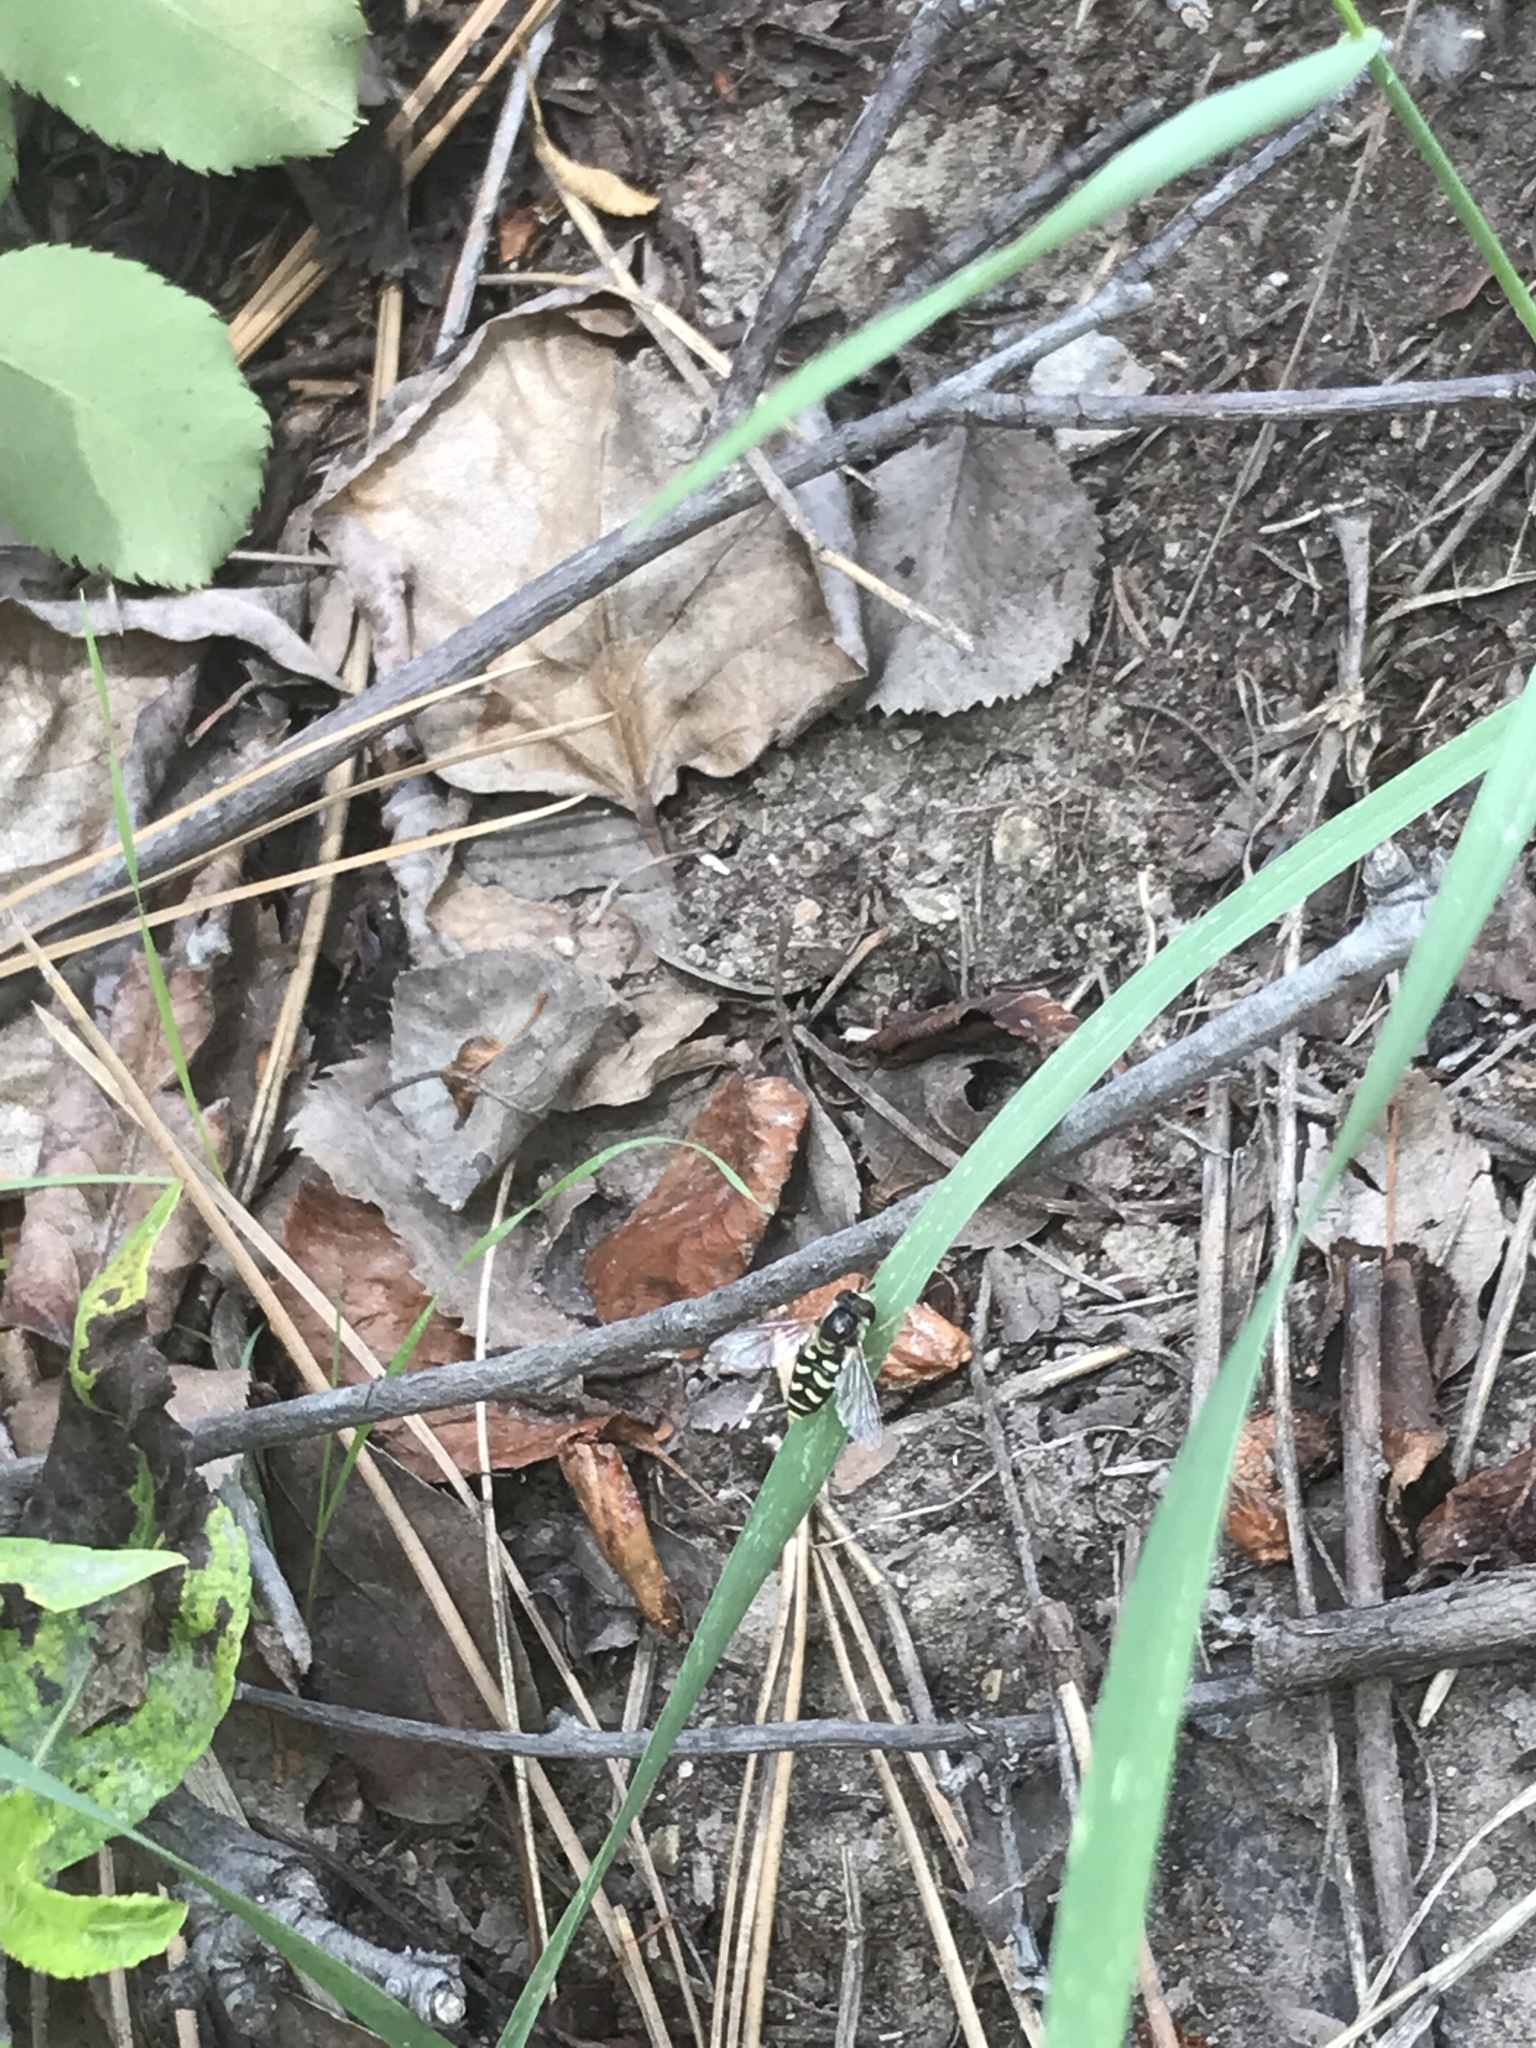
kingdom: Animalia
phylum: Arthropoda
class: Insecta
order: Diptera
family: Syrphidae
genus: Eupeodes
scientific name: Eupeodes volucris
